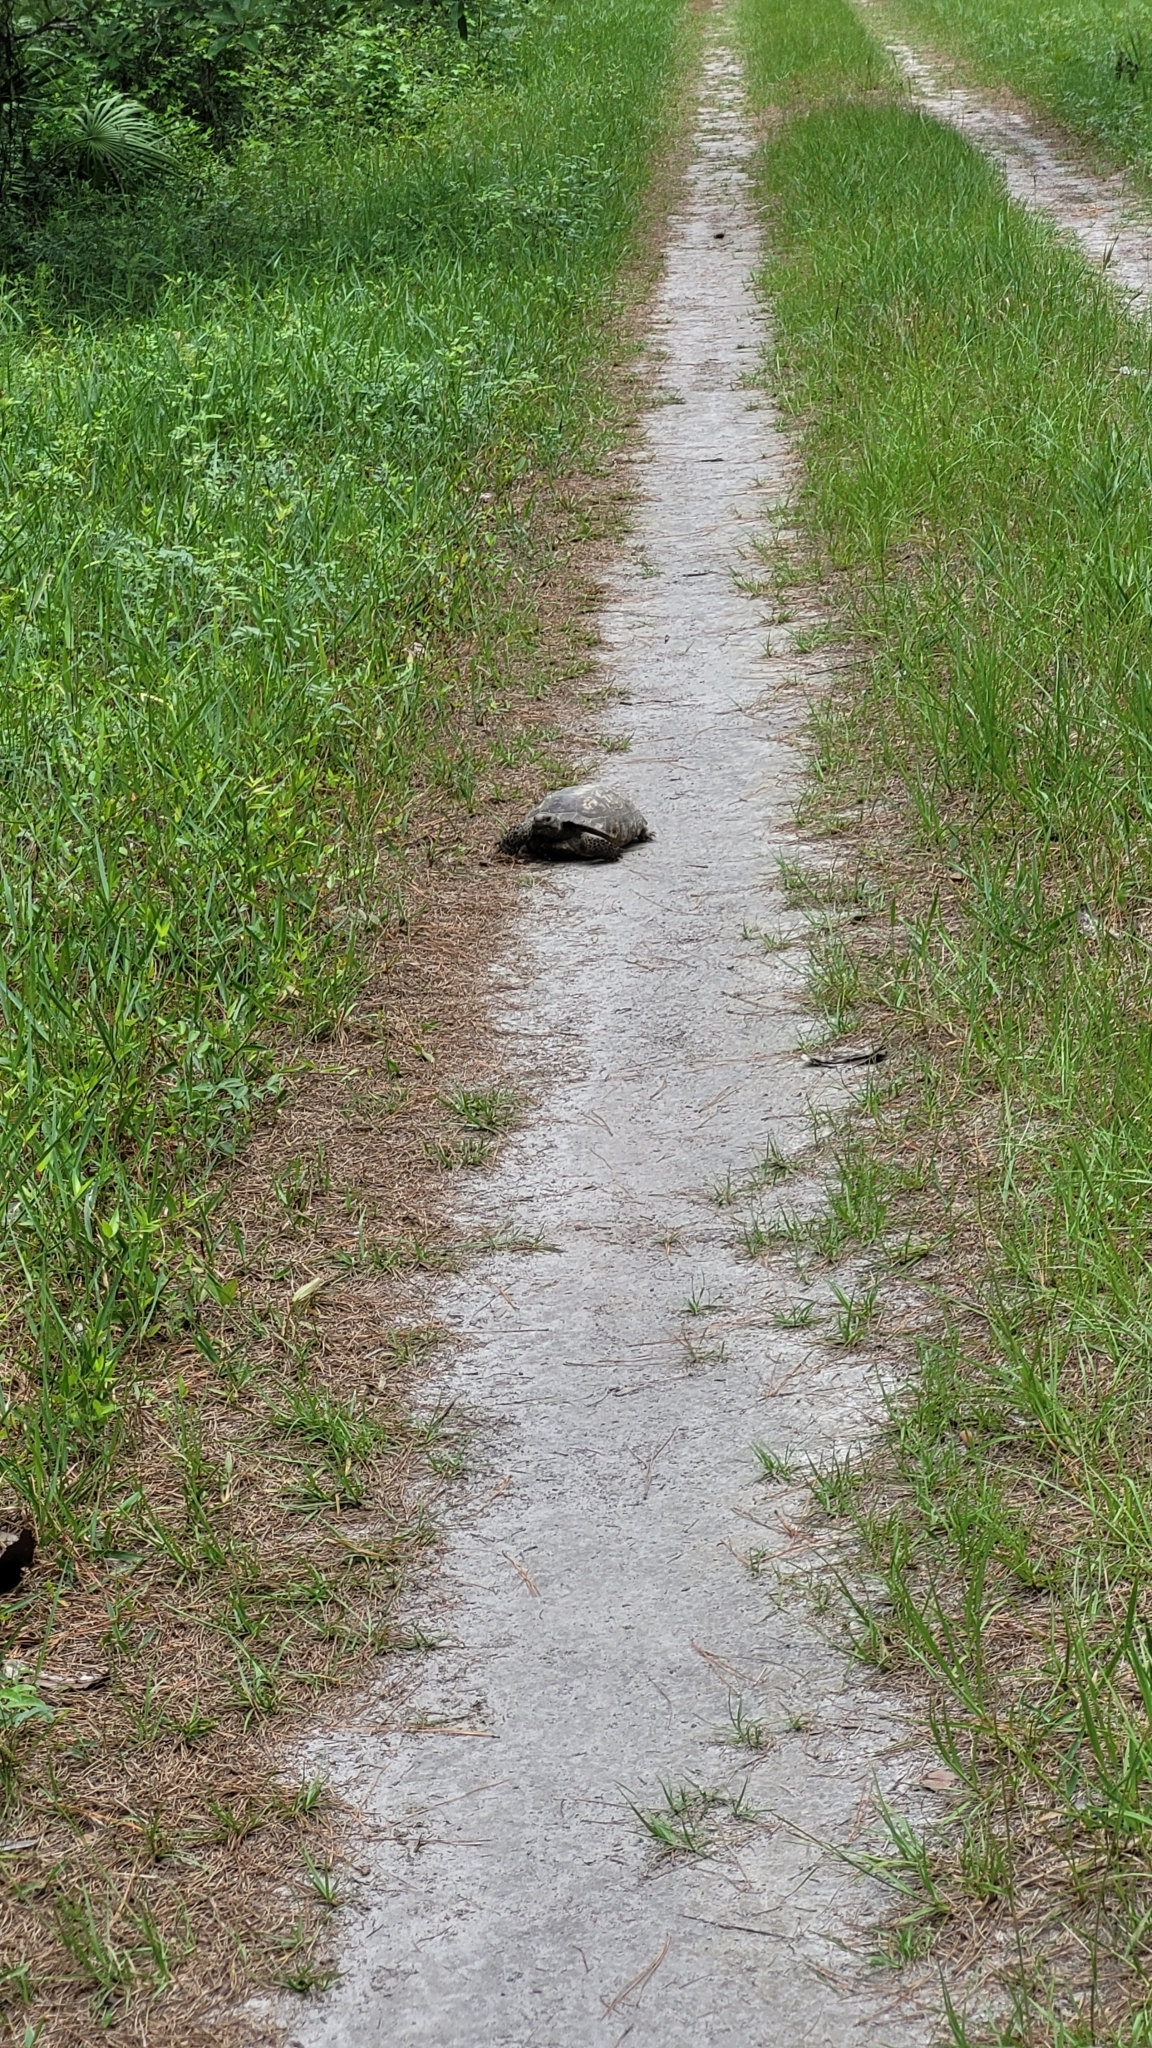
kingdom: Animalia
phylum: Chordata
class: Testudines
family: Testudinidae
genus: Gopherus
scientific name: Gopherus polyphemus
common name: Florida gopher tortoise
